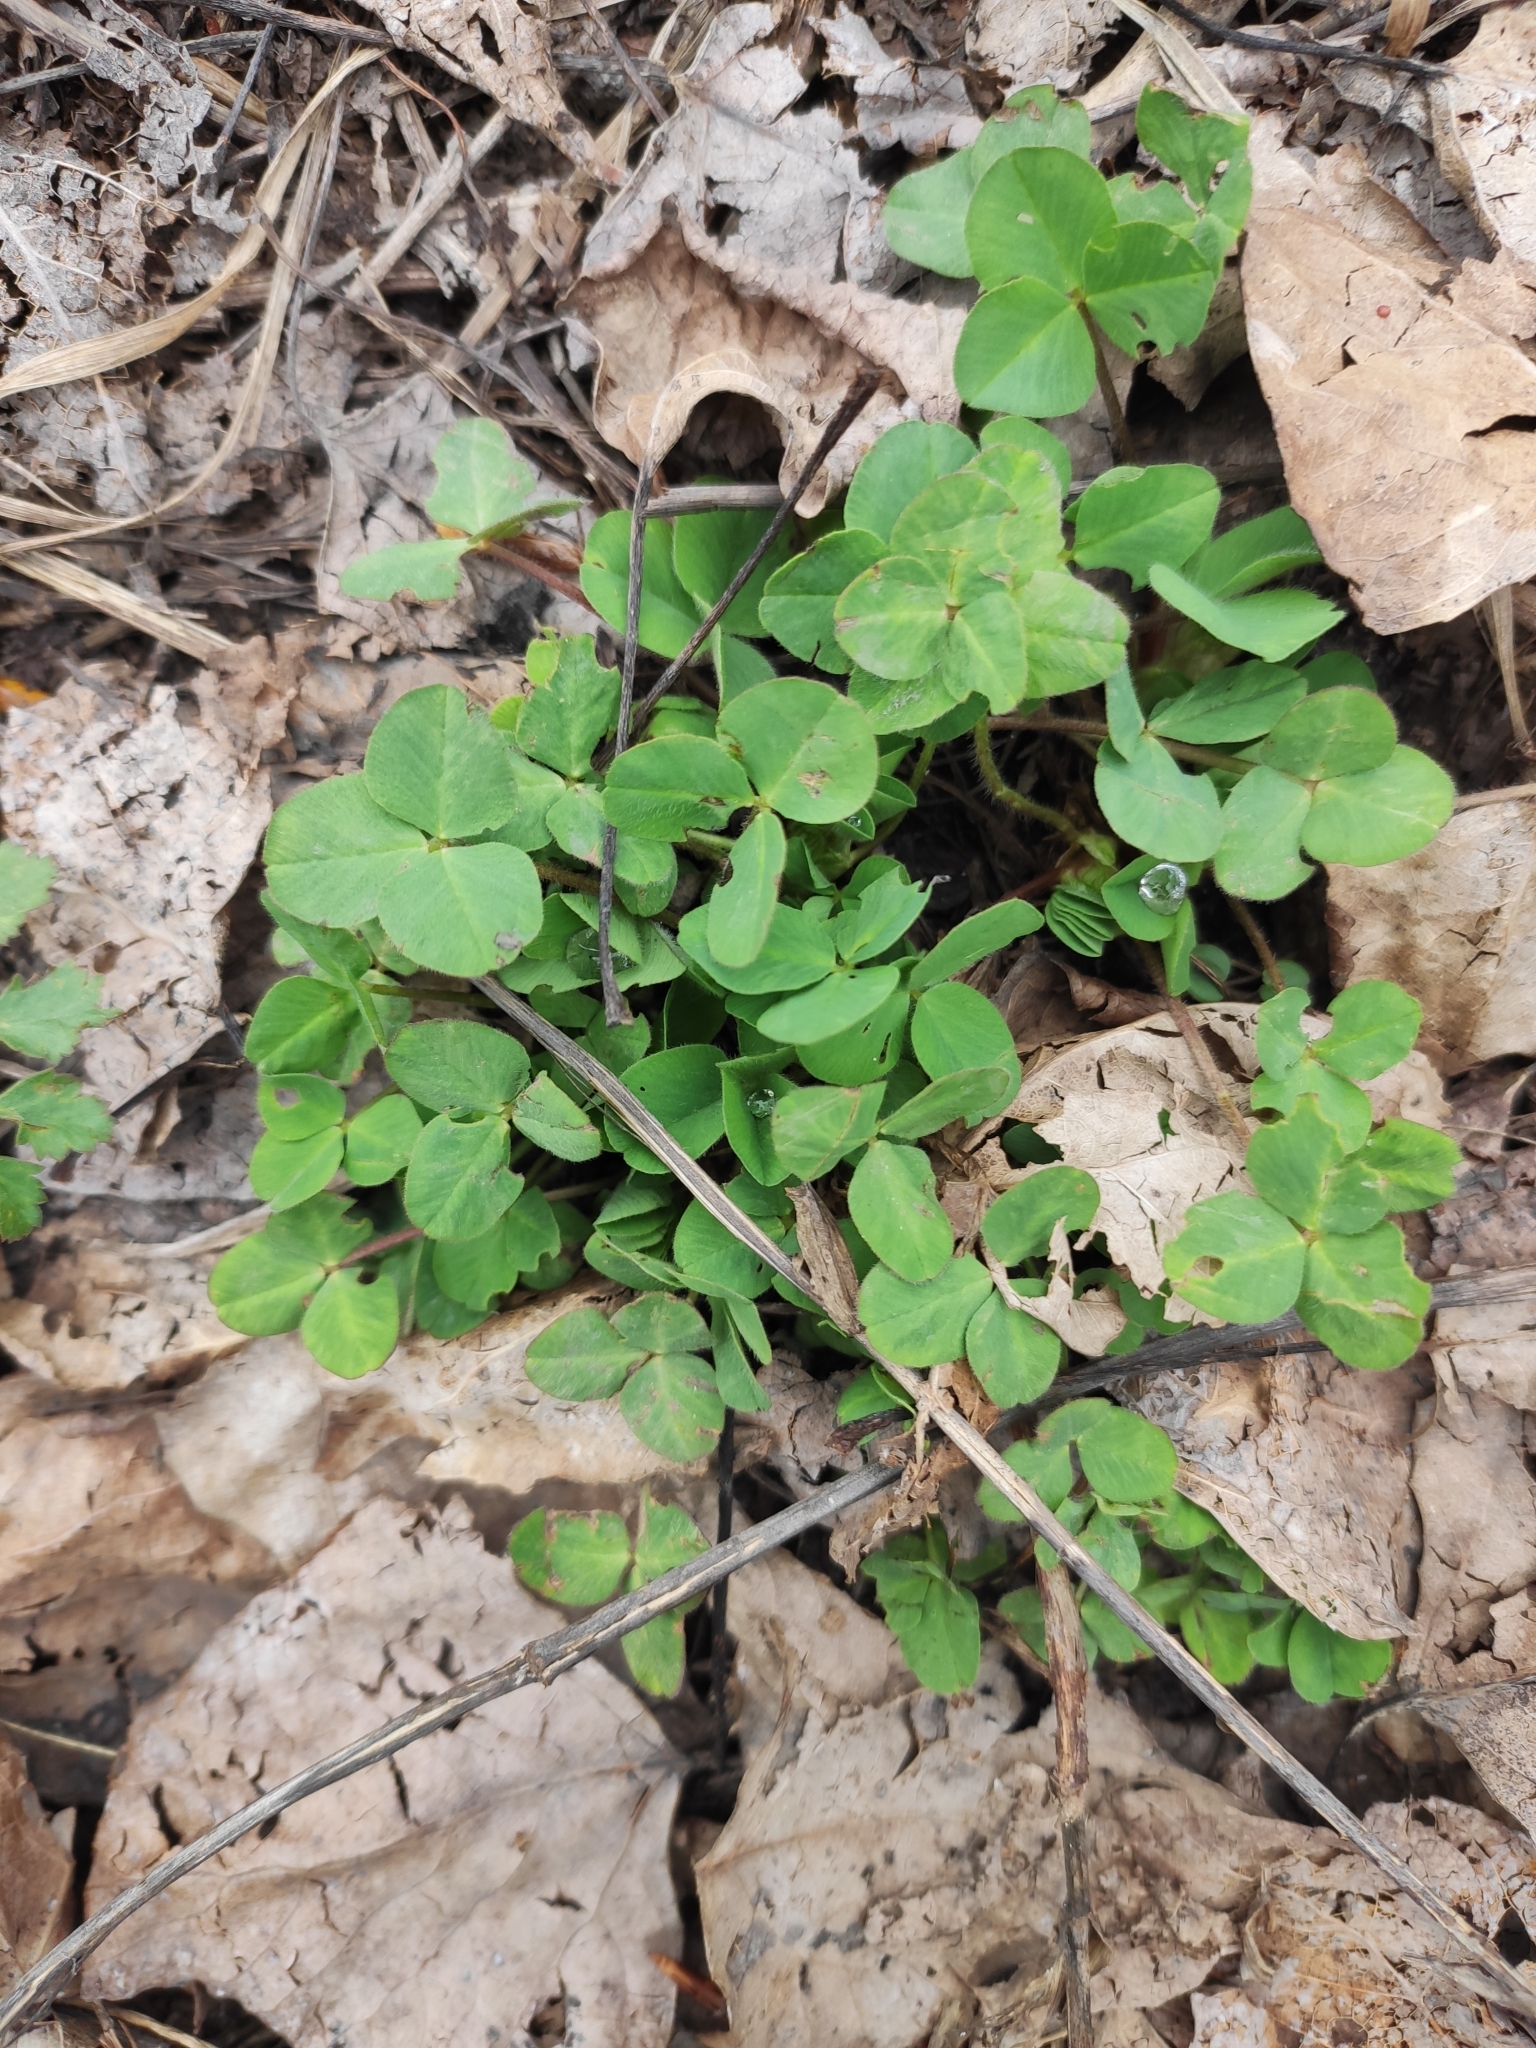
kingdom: Plantae
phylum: Tracheophyta
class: Magnoliopsida
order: Fabales
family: Fabaceae
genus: Trifolium
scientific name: Trifolium repens
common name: White clover
